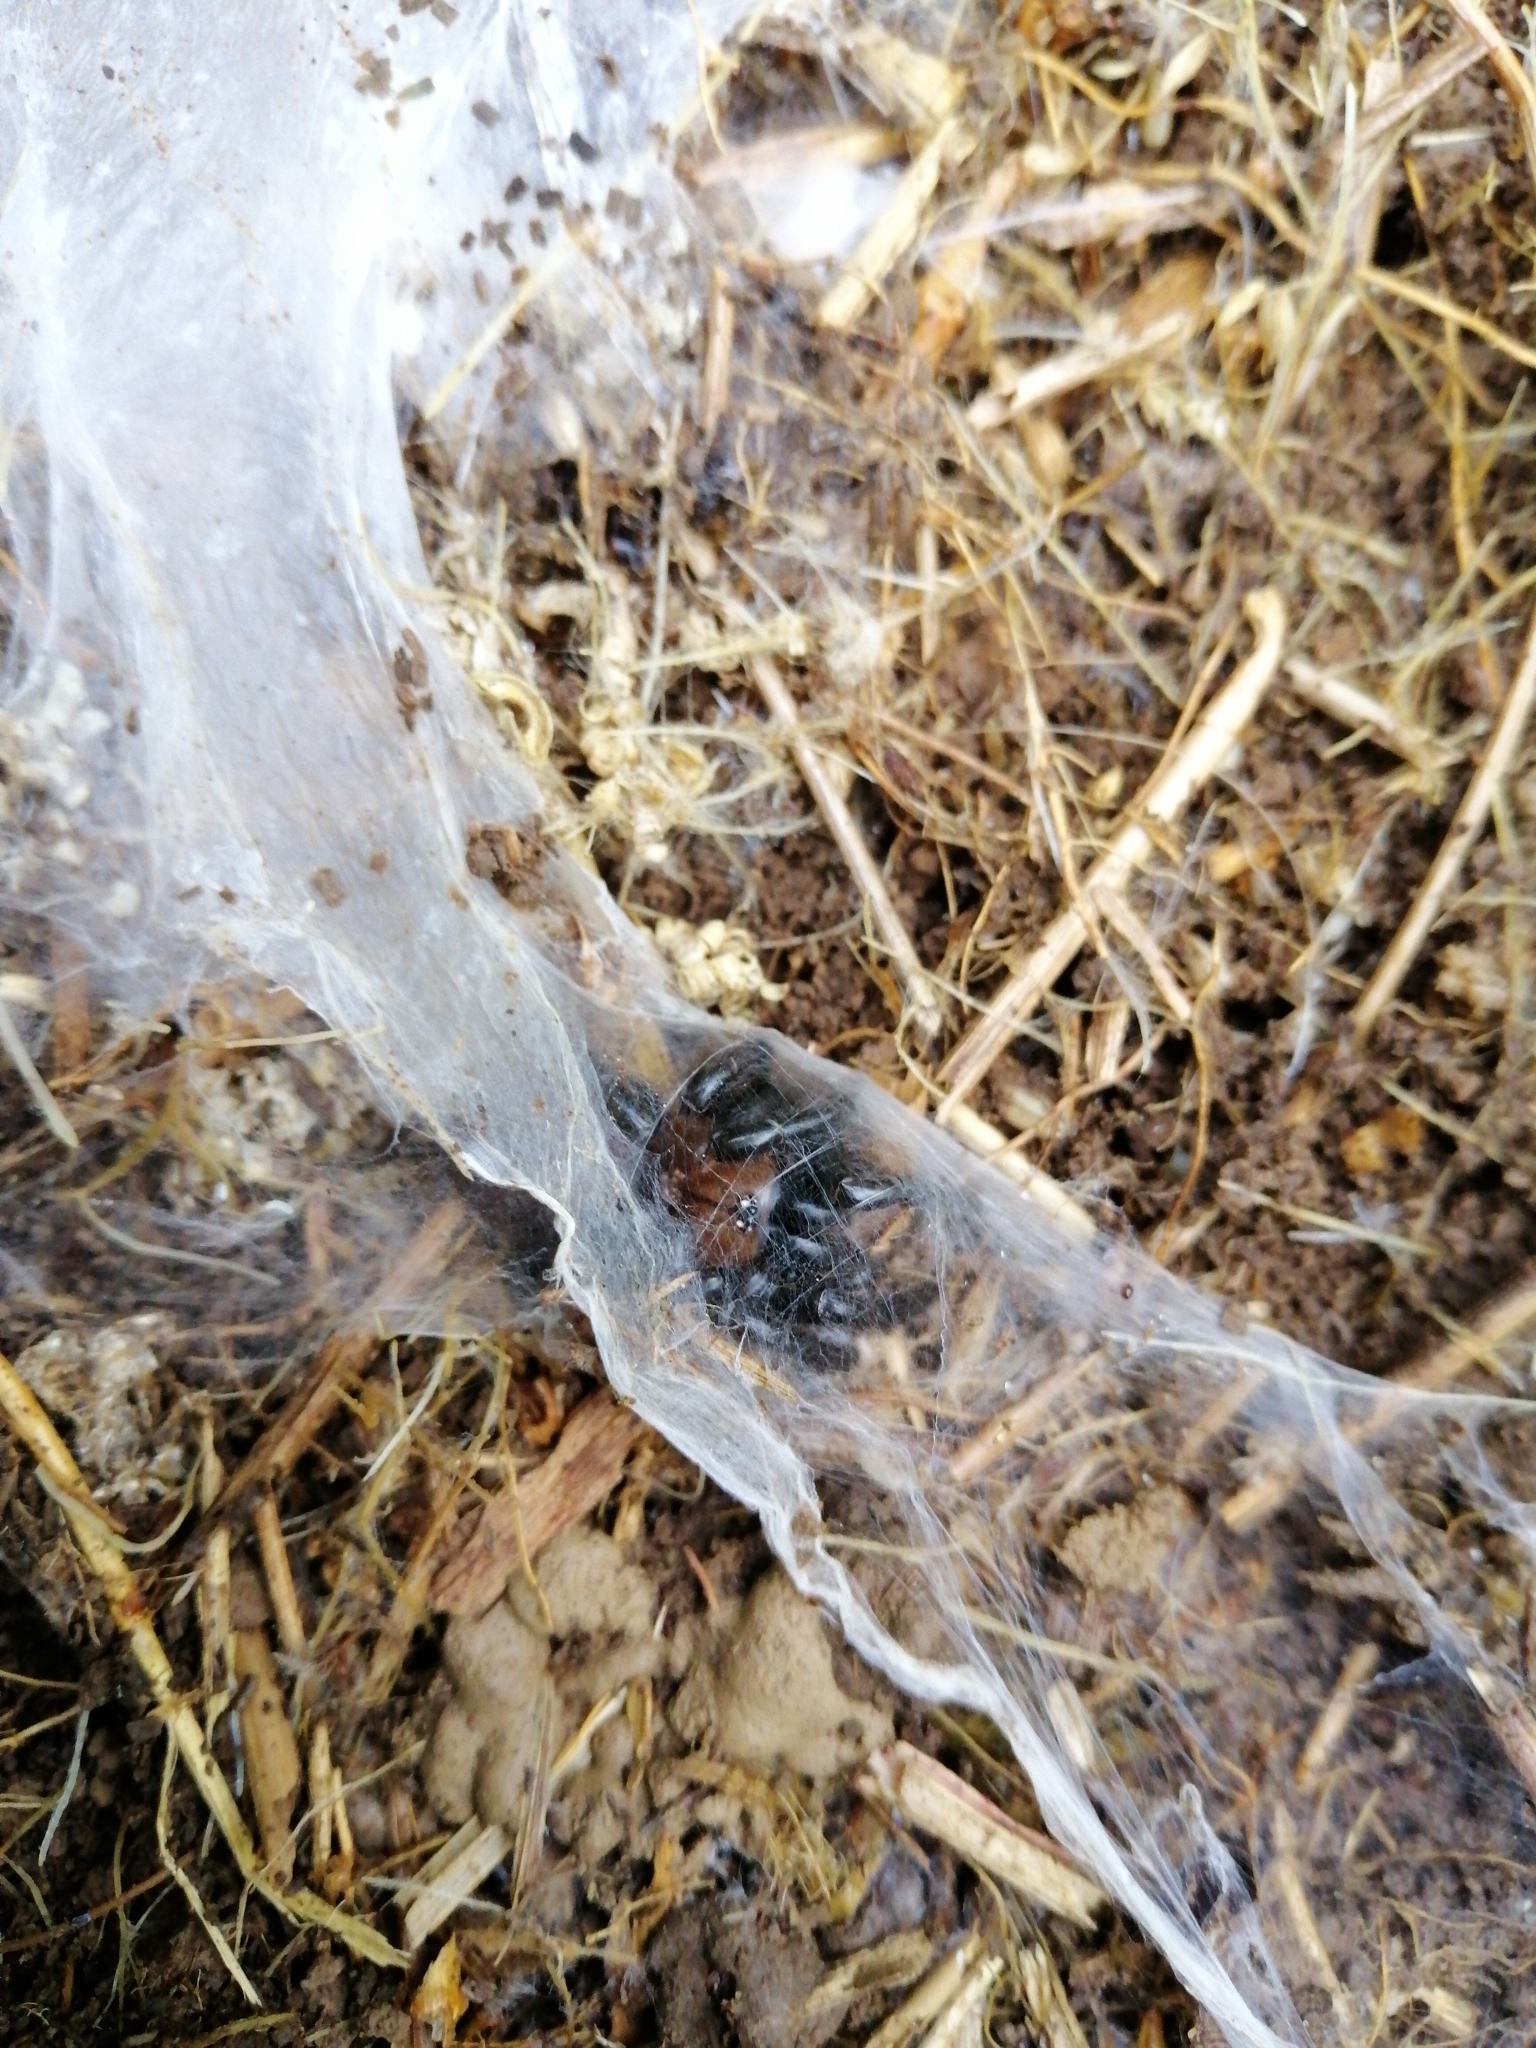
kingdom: Animalia
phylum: Arthropoda
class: Arachnida
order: Araneae
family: Porrhothelidae
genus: Porrhothele
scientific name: Porrhothele antipodiana
